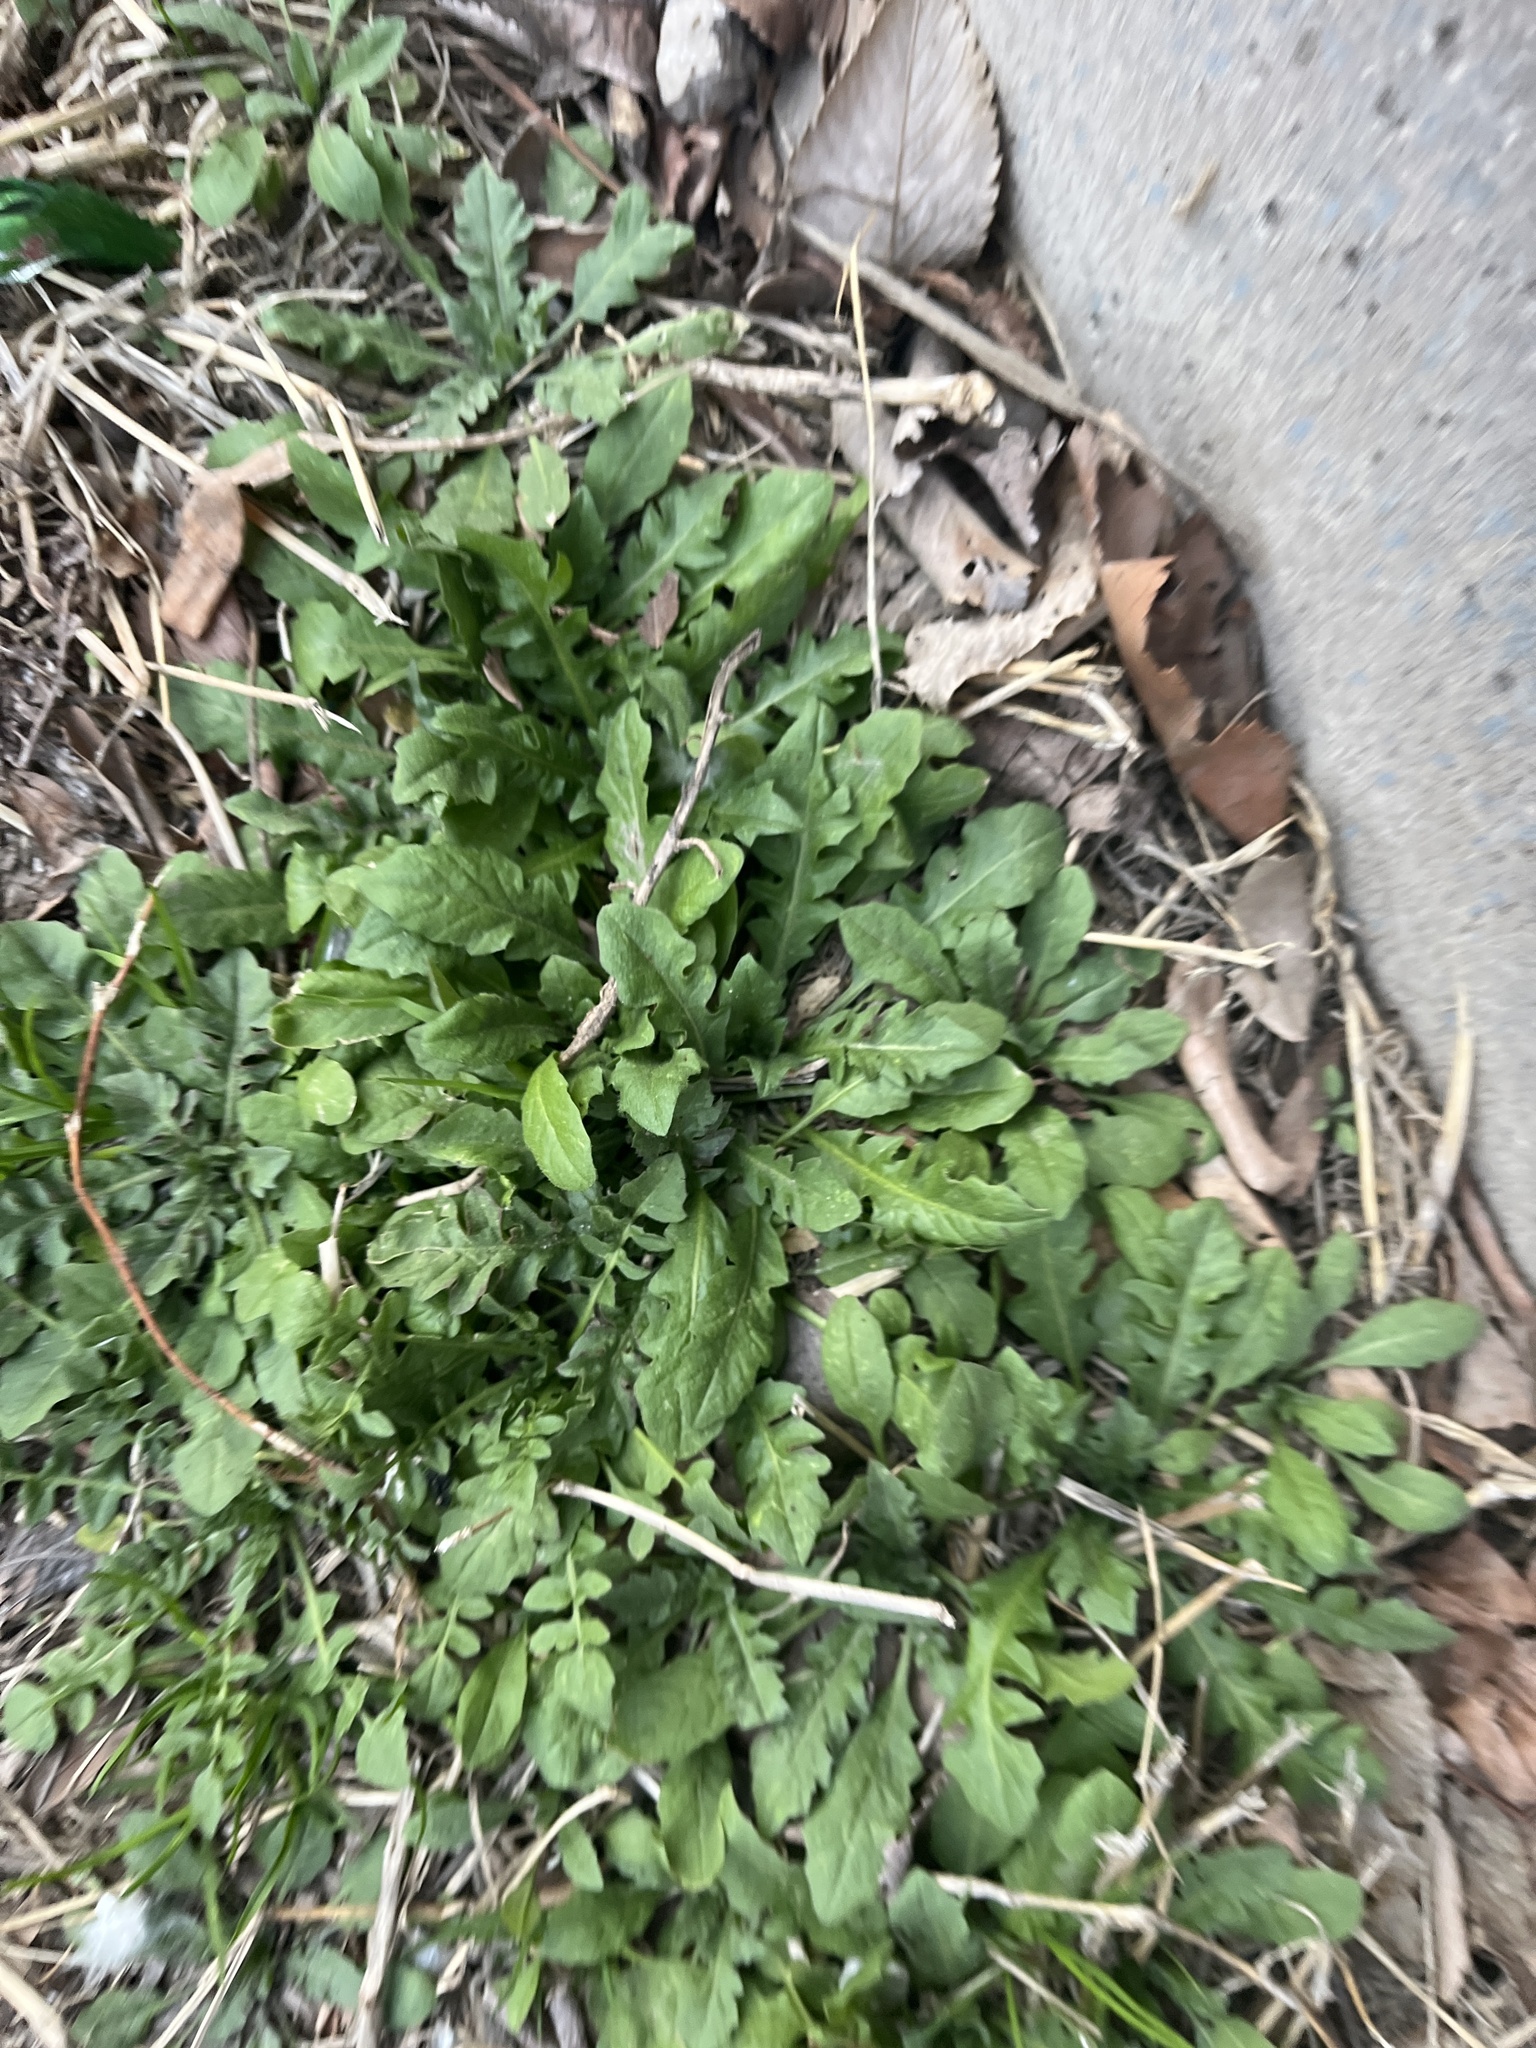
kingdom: Plantae
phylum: Tracheophyta
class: Magnoliopsida
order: Brassicales
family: Brassicaceae
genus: Capsella
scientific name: Capsella bursa-pastoris
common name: Shepherd's purse
